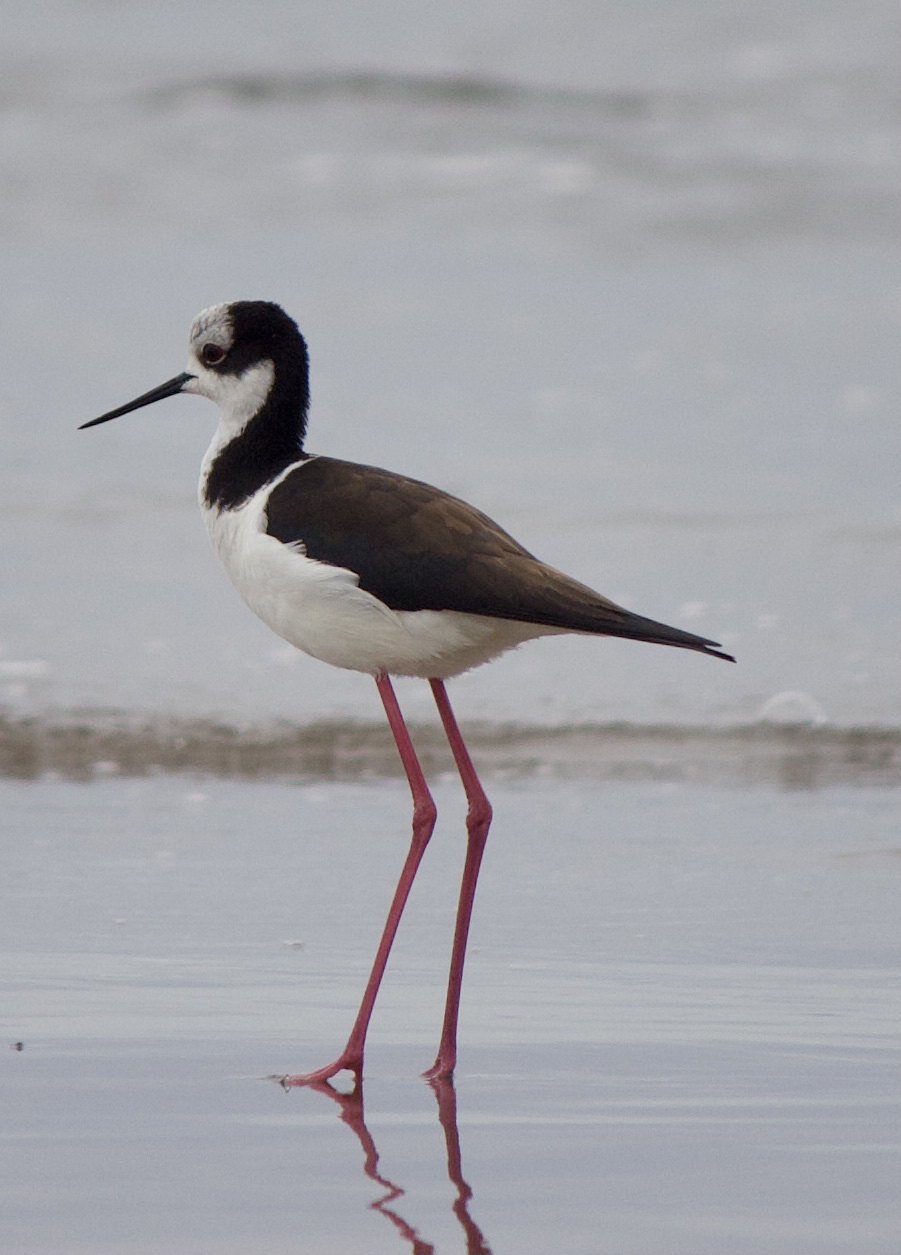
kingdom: Animalia
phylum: Chordata
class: Aves
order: Charadriiformes
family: Recurvirostridae
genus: Himantopus
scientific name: Himantopus mexicanus
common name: Black-necked stilt
